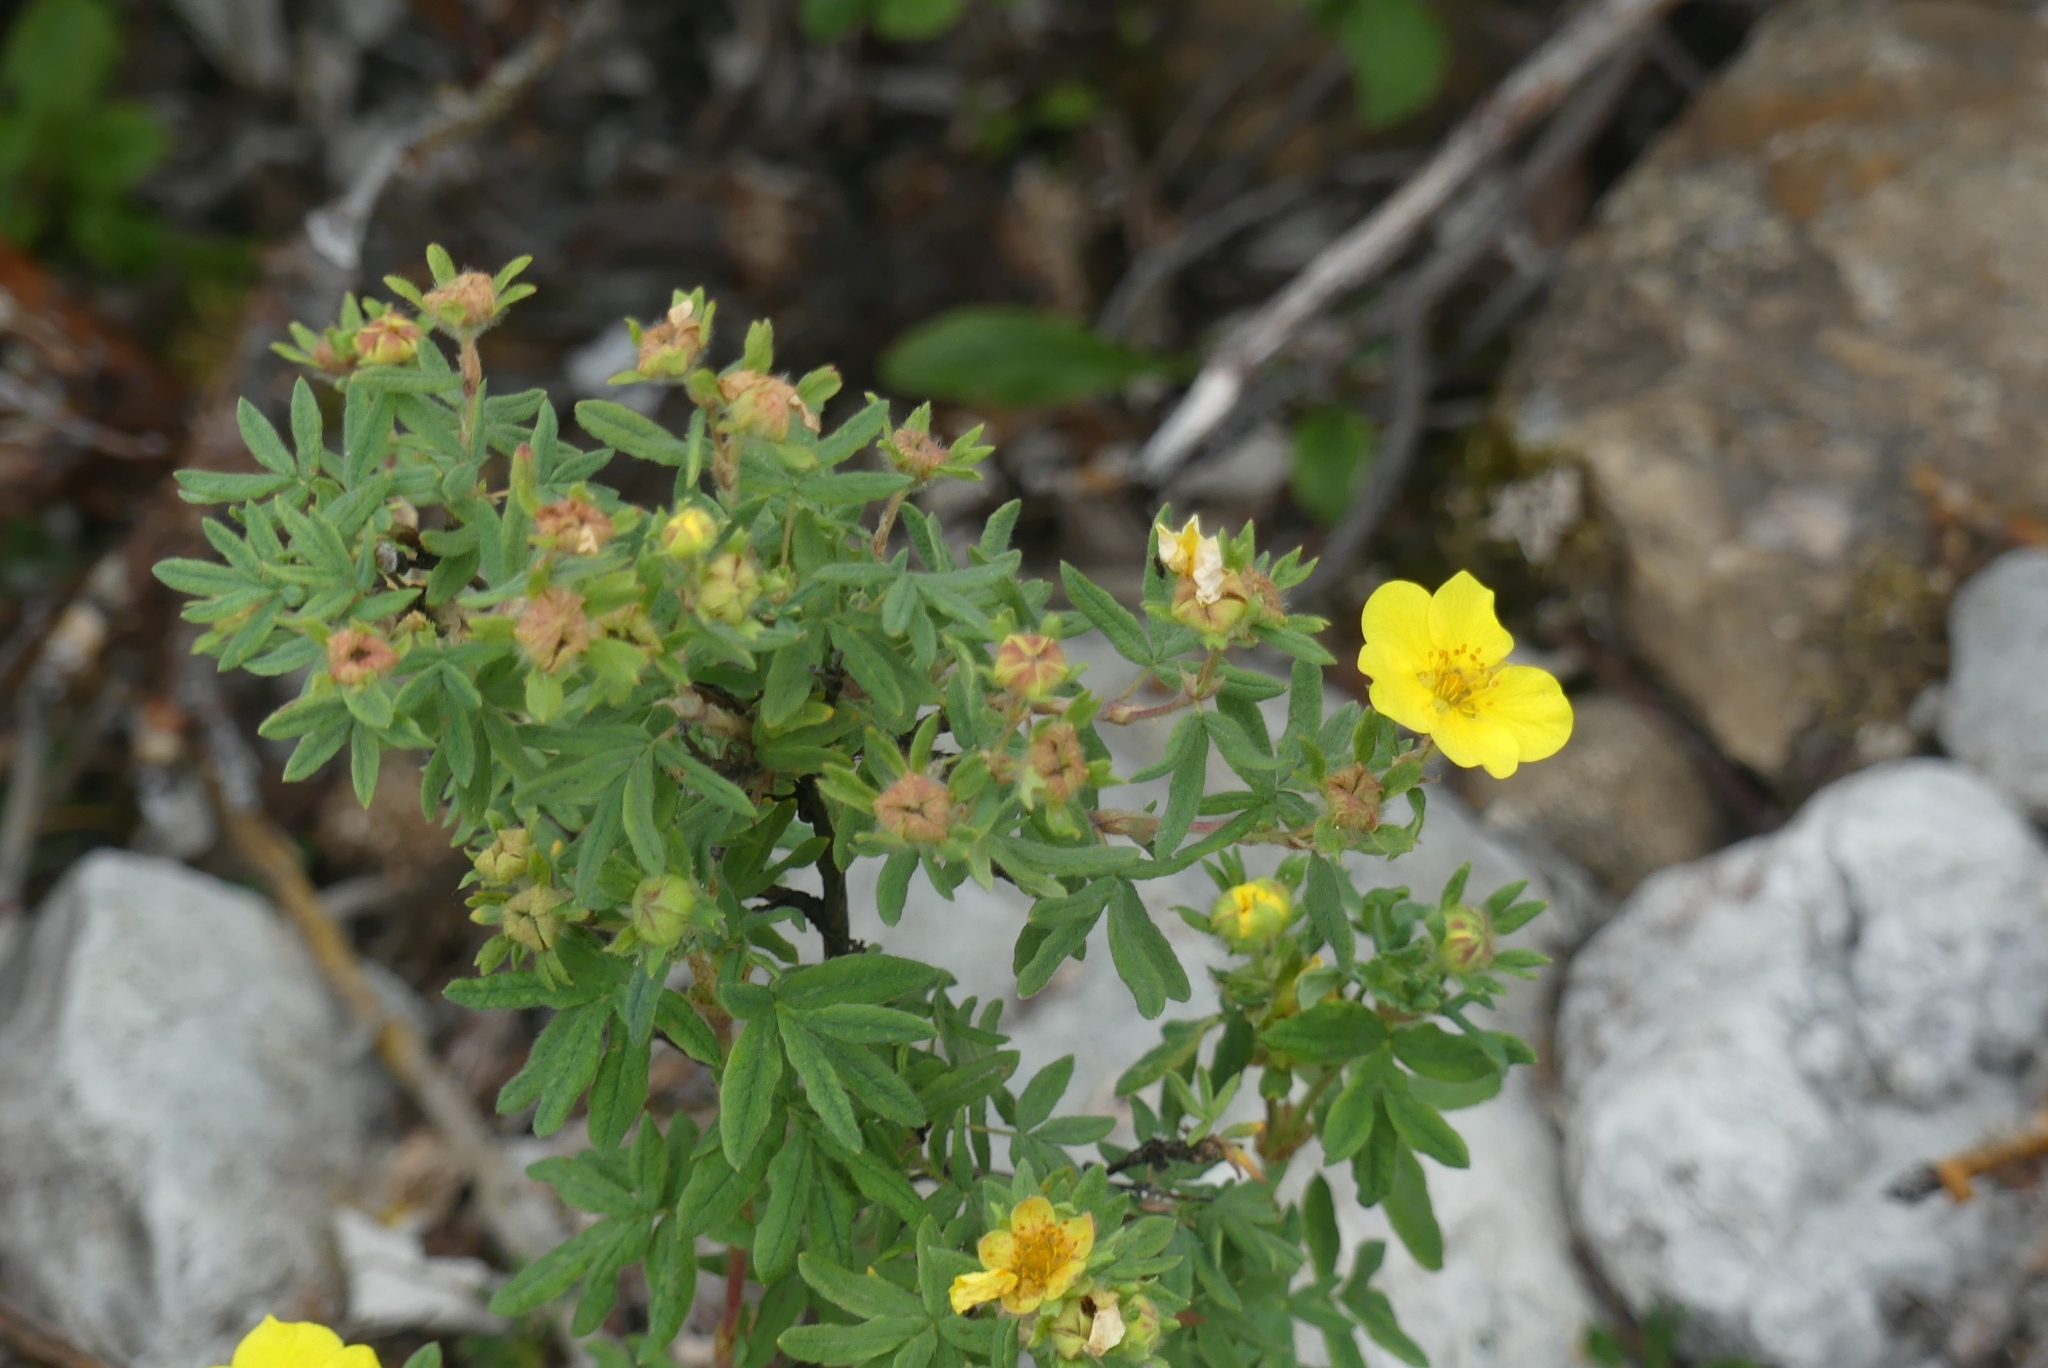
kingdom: Plantae
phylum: Tracheophyta
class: Magnoliopsida
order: Rosales
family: Rosaceae
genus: Dasiphora
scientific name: Dasiphora fruticosa
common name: Shrubby cinquefoil
